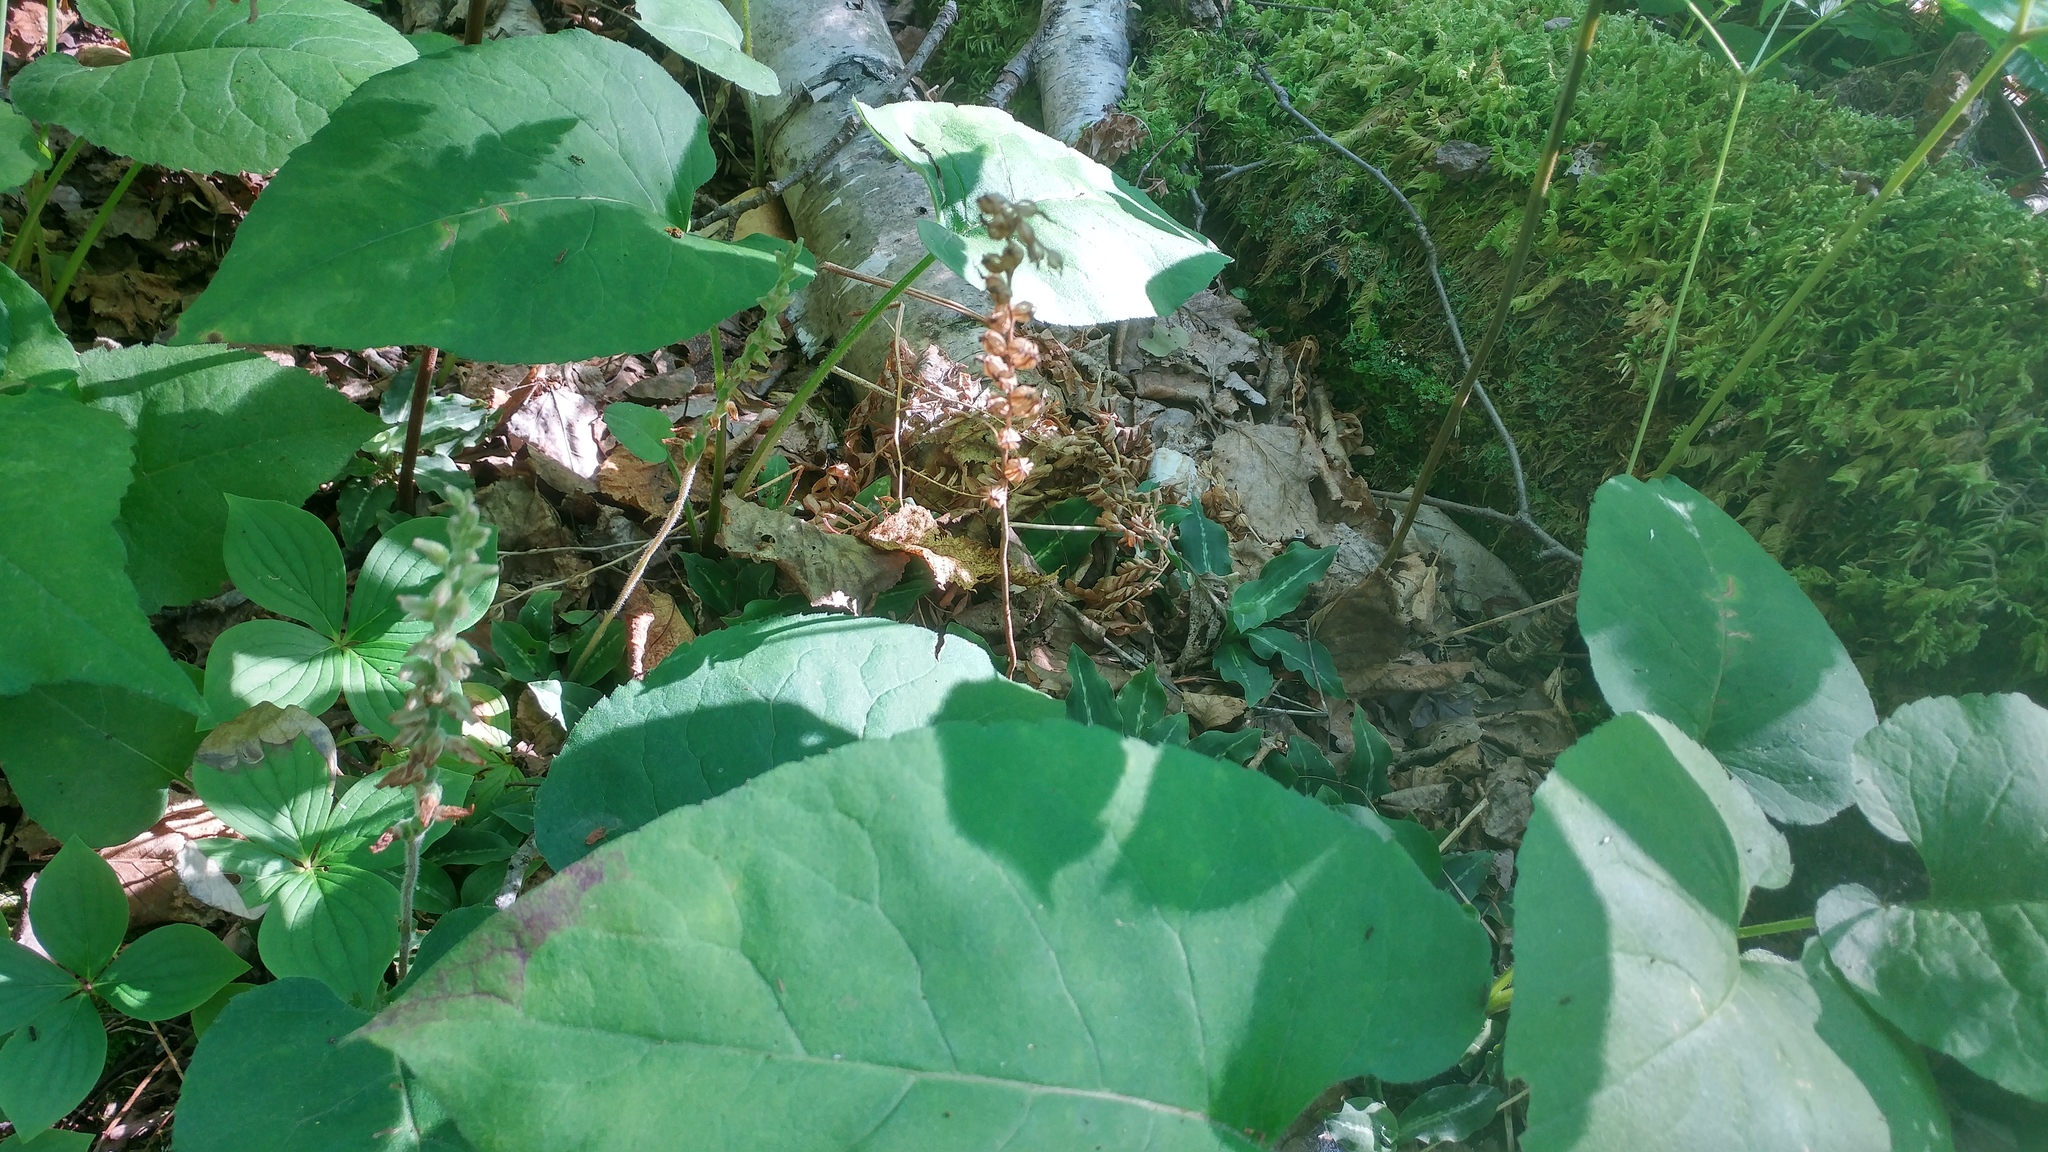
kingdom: Plantae
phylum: Tracheophyta
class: Liliopsida
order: Asparagales
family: Orchidaceae
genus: Goodyera
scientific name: Goodyera oblongifolia
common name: Giant rattlesnake-plantain
